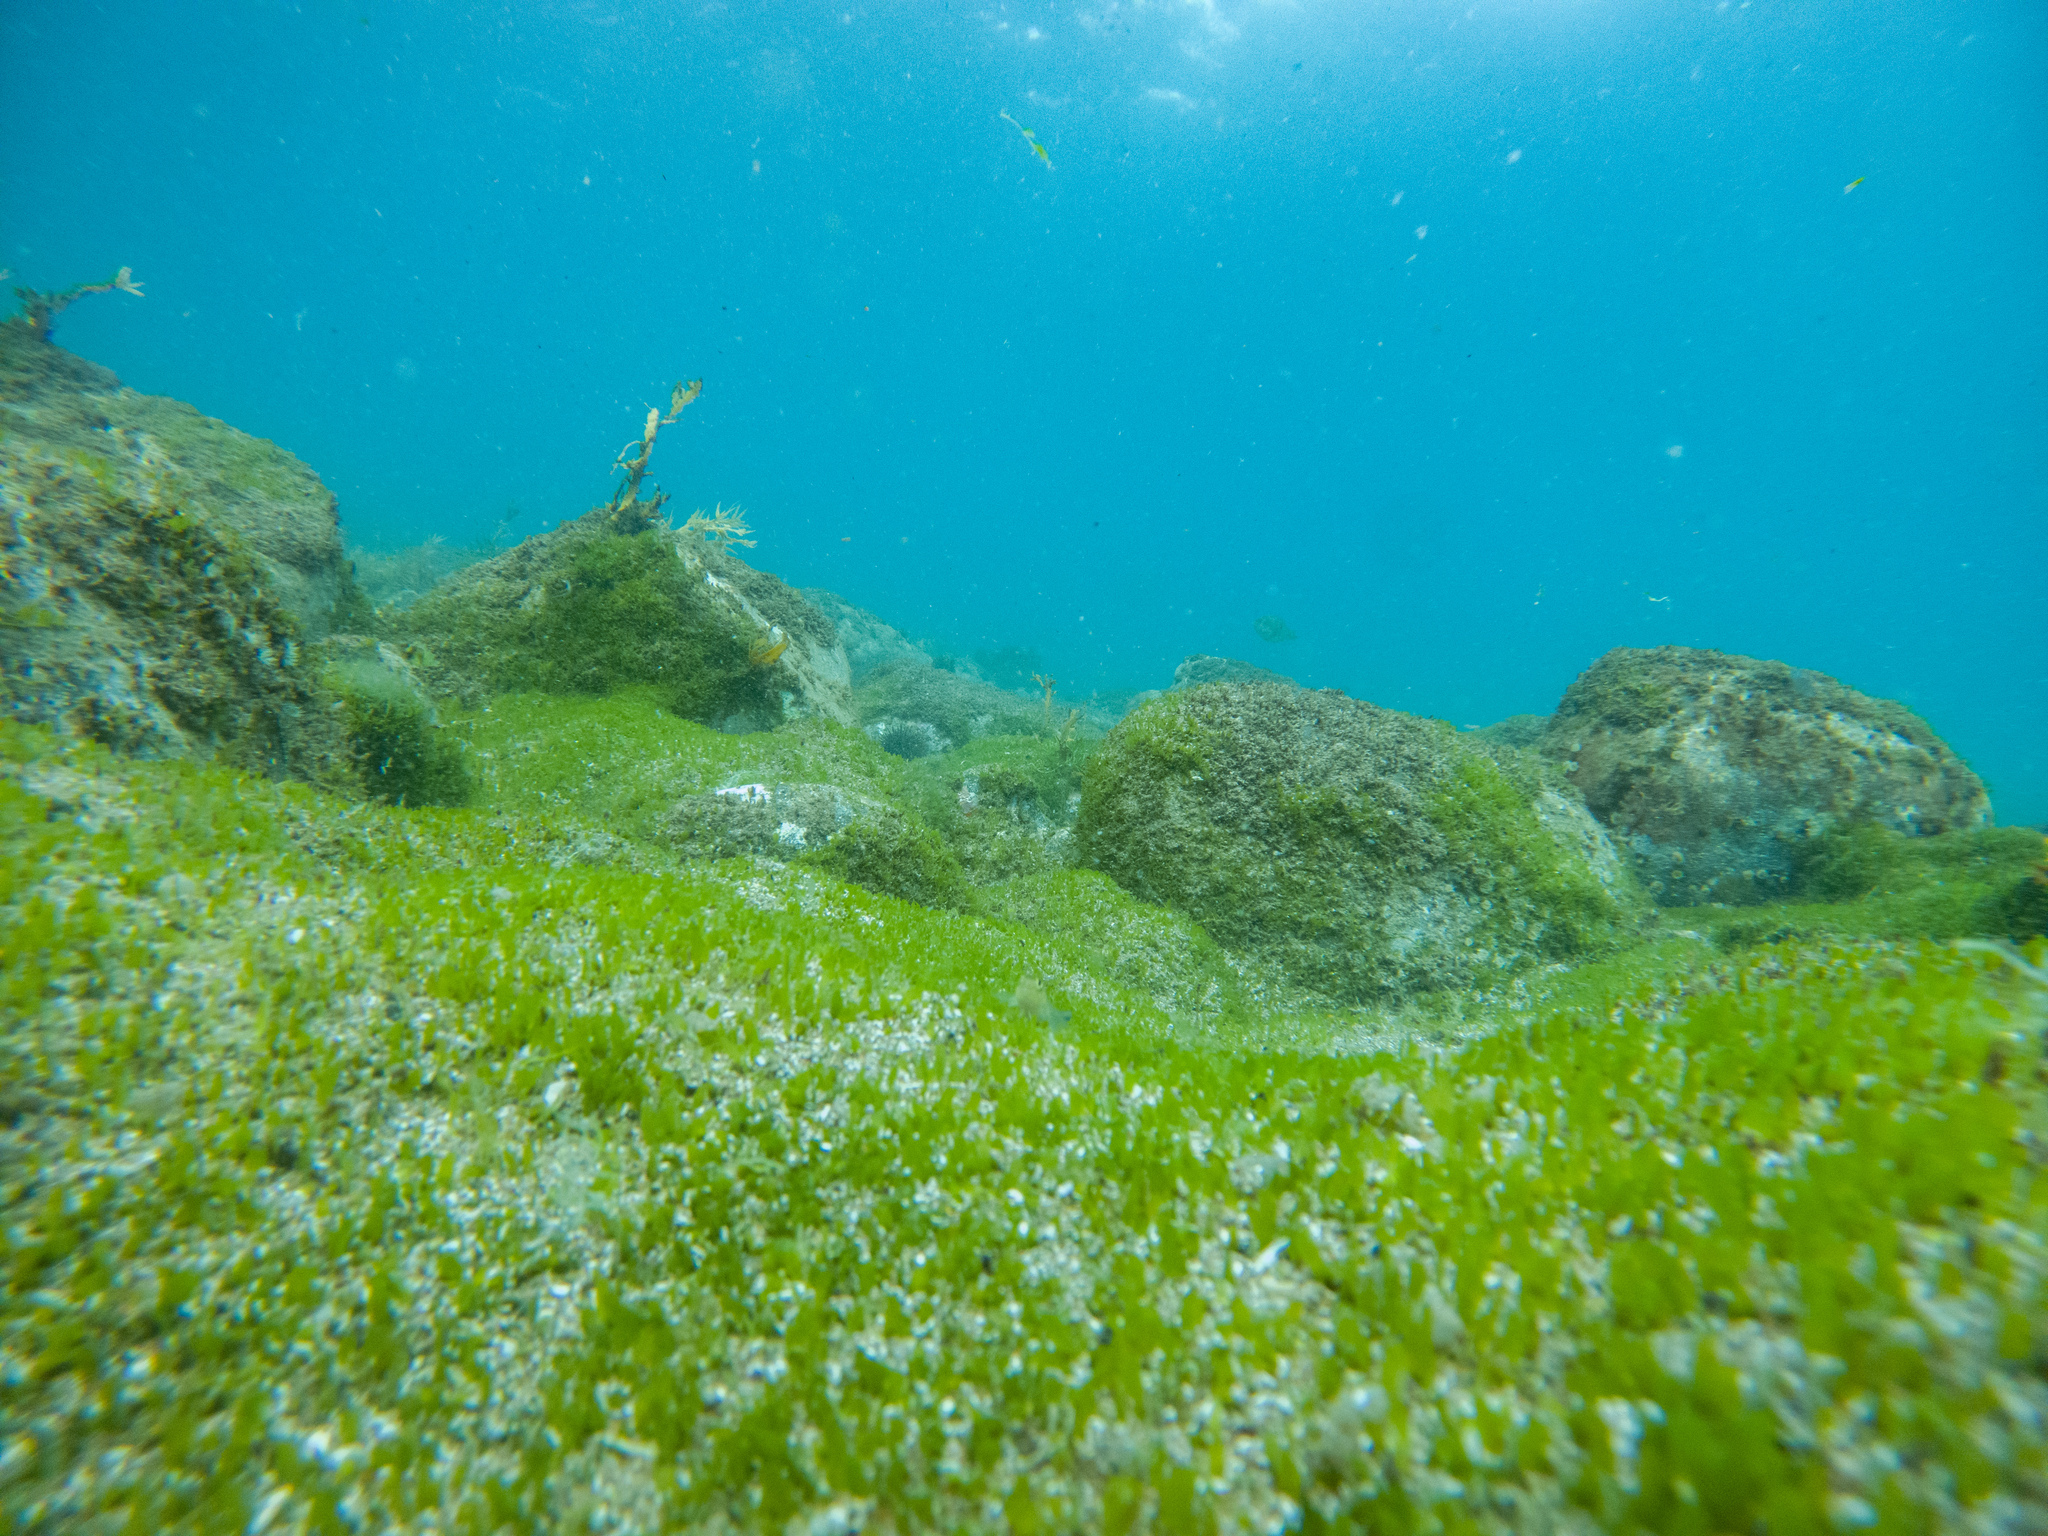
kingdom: Plantae
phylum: Chlorophyta
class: Ulvophyceae
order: Bryopsidales
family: Caulerpaceae
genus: Caulerpa
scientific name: Caulerpa brachypus
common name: Macroalgae
